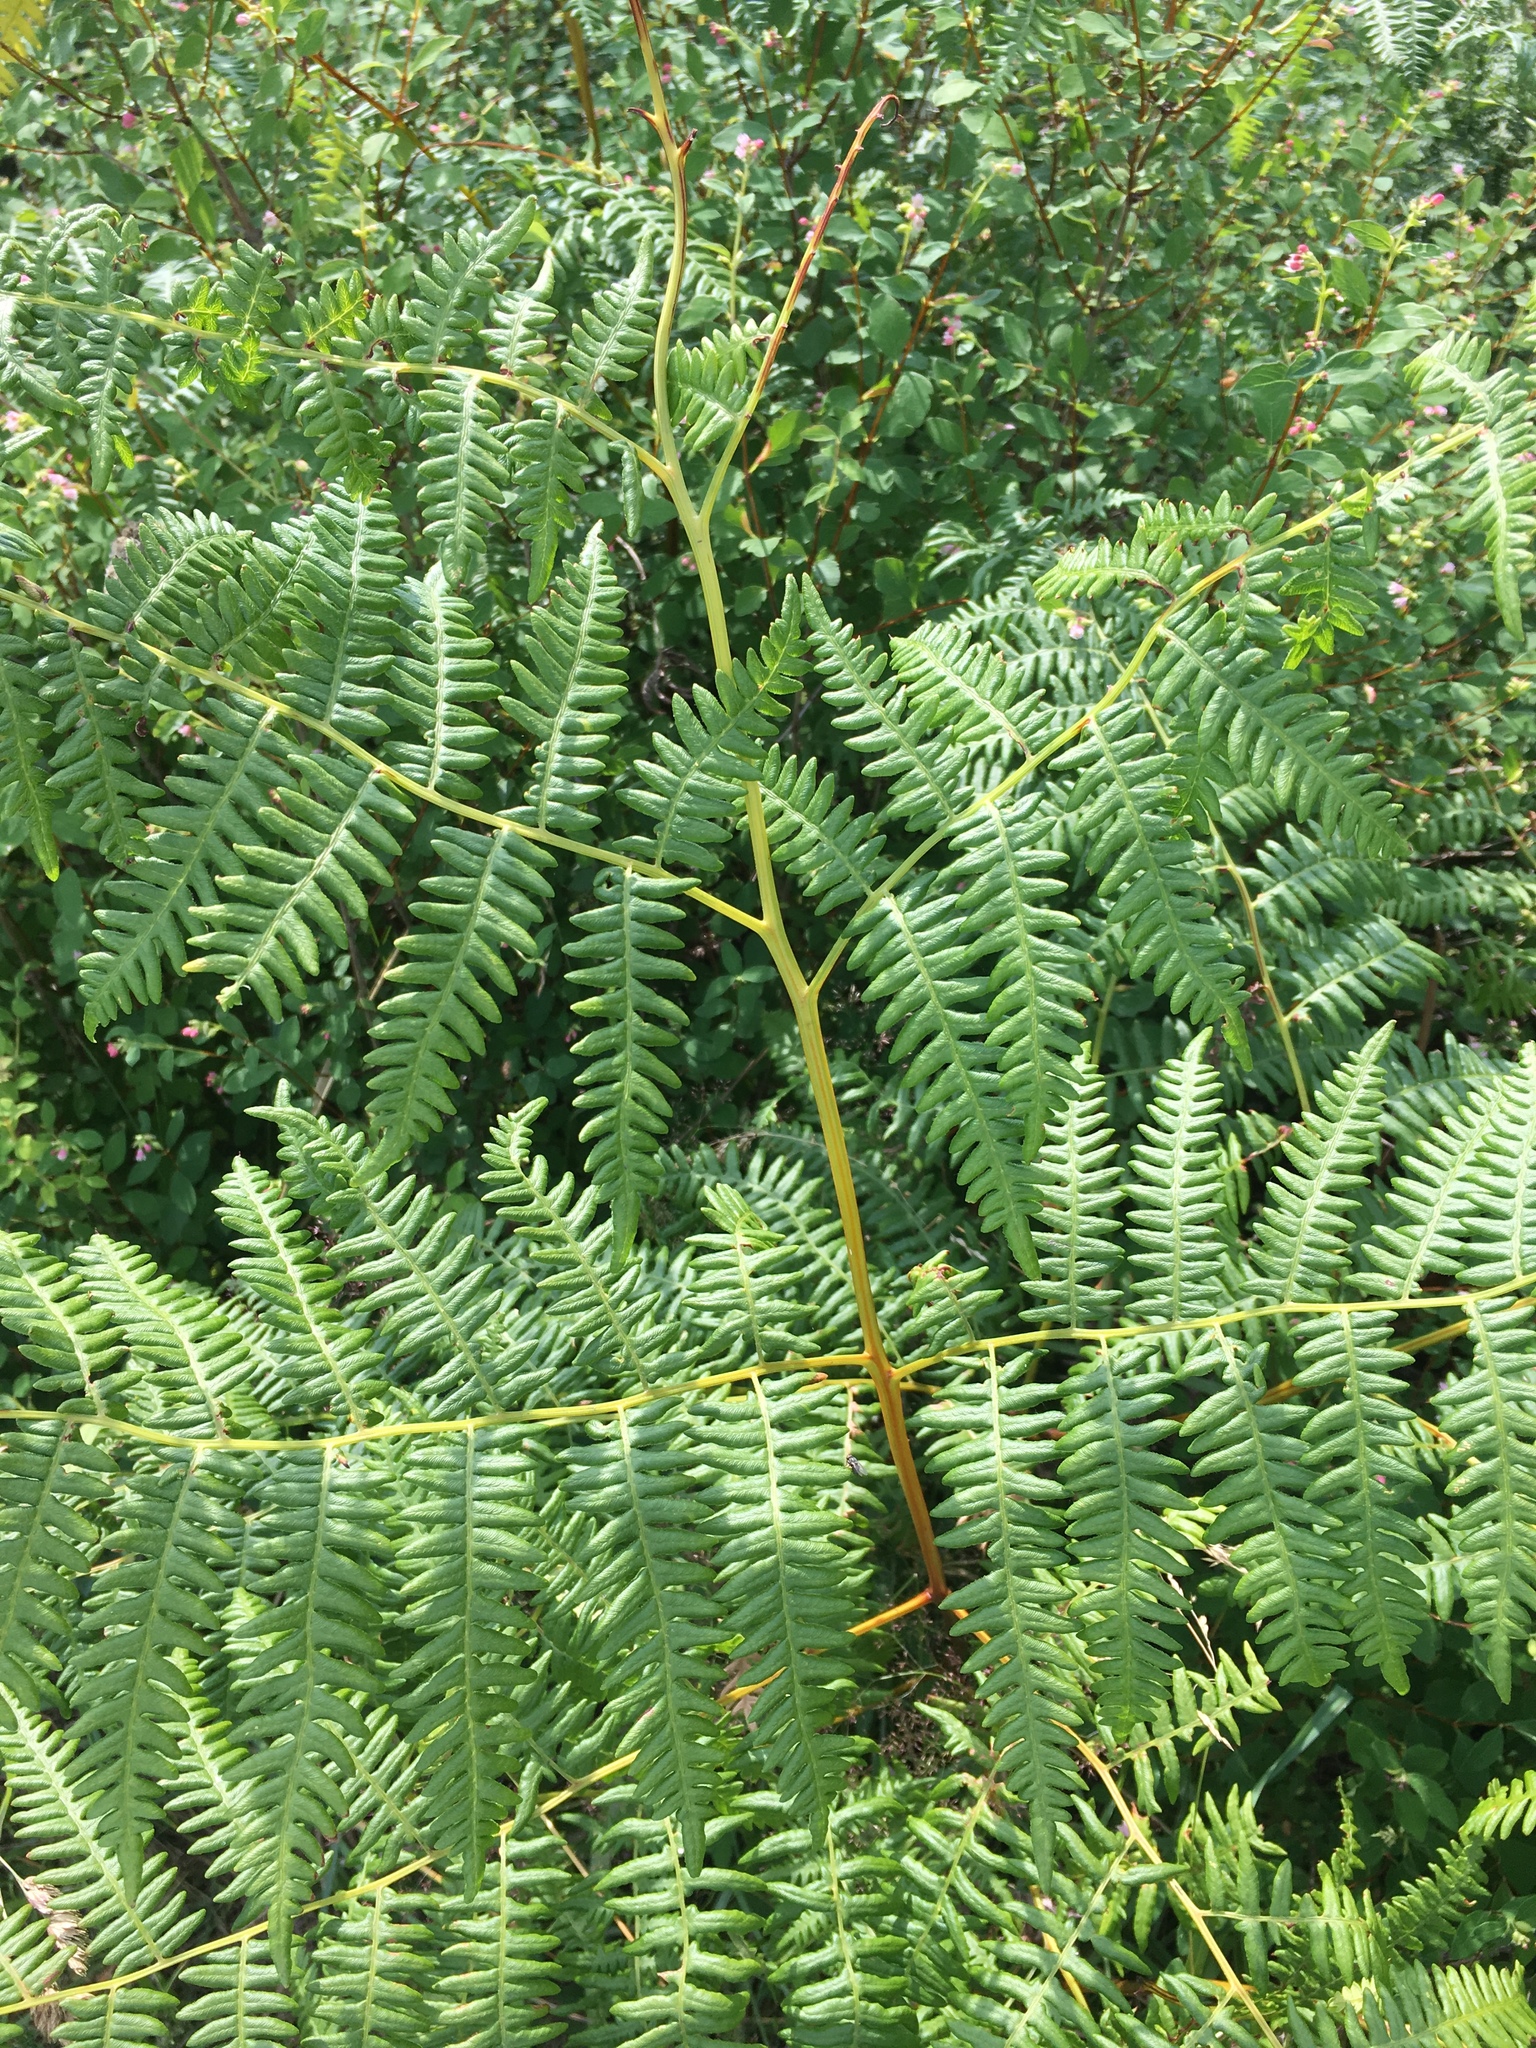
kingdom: Plantae
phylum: Tracheophyta
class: Polypodiopsida
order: Polypodiales
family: Dennstaedtiaceae
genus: Pteridium
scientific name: Pteridium aquilinum
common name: Bracken
